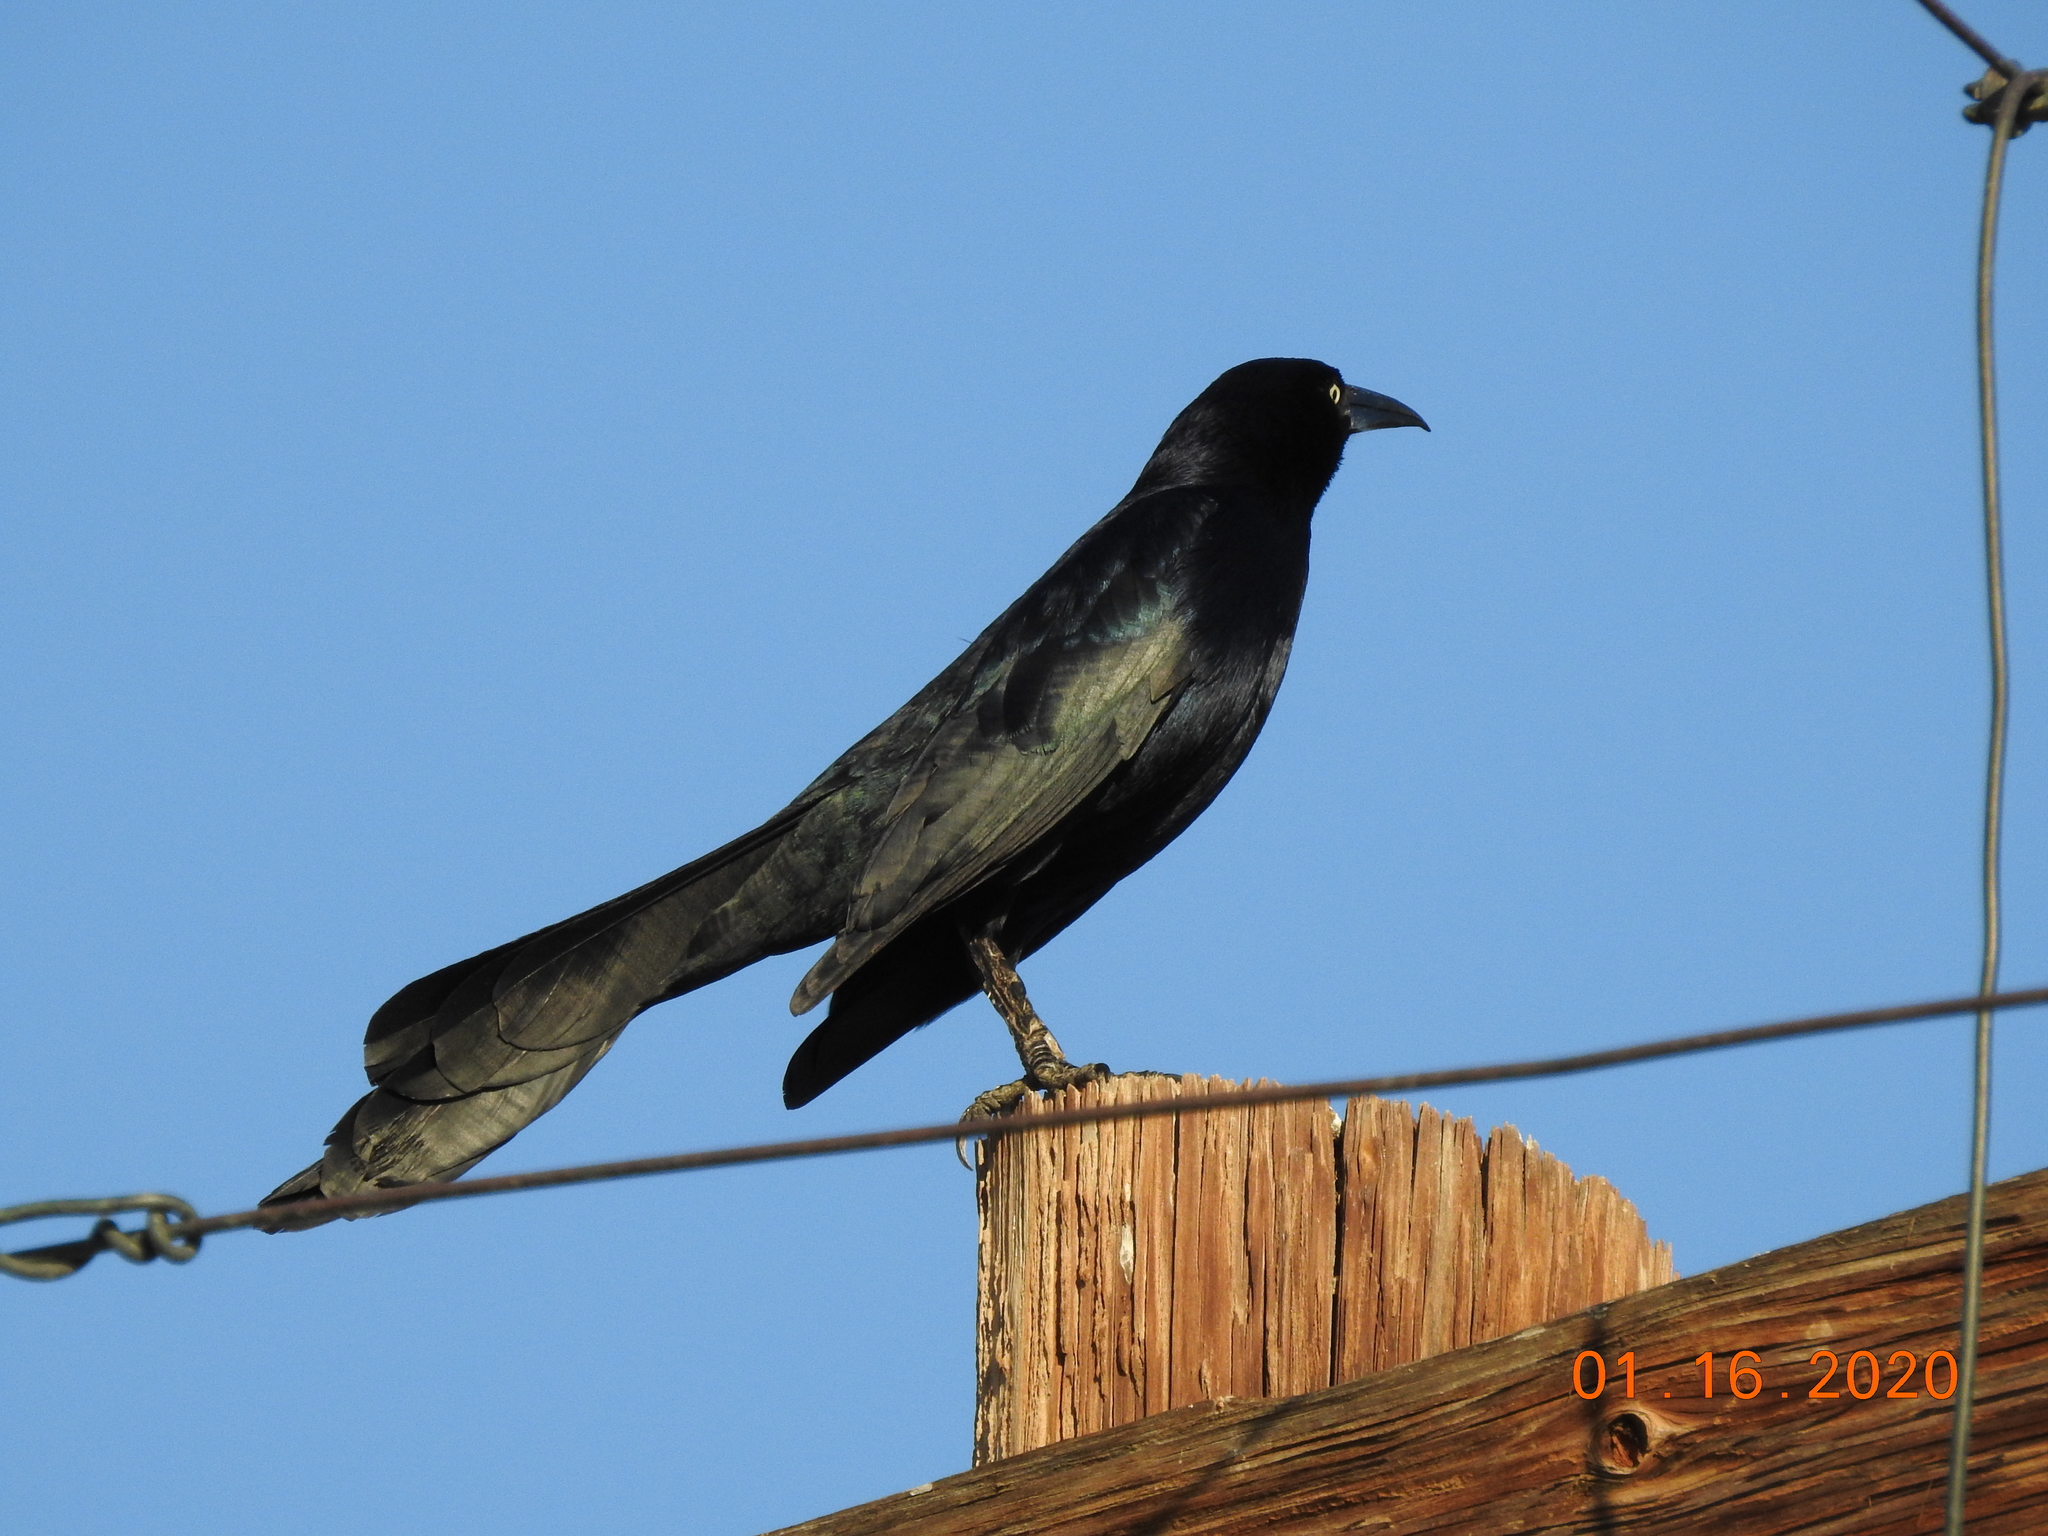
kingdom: Animalia
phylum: Chordata
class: Aves
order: Passeriformes
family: Icteridae
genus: Quiscalus
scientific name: Quiscalus mexicanus
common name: Great-tailed grackle
